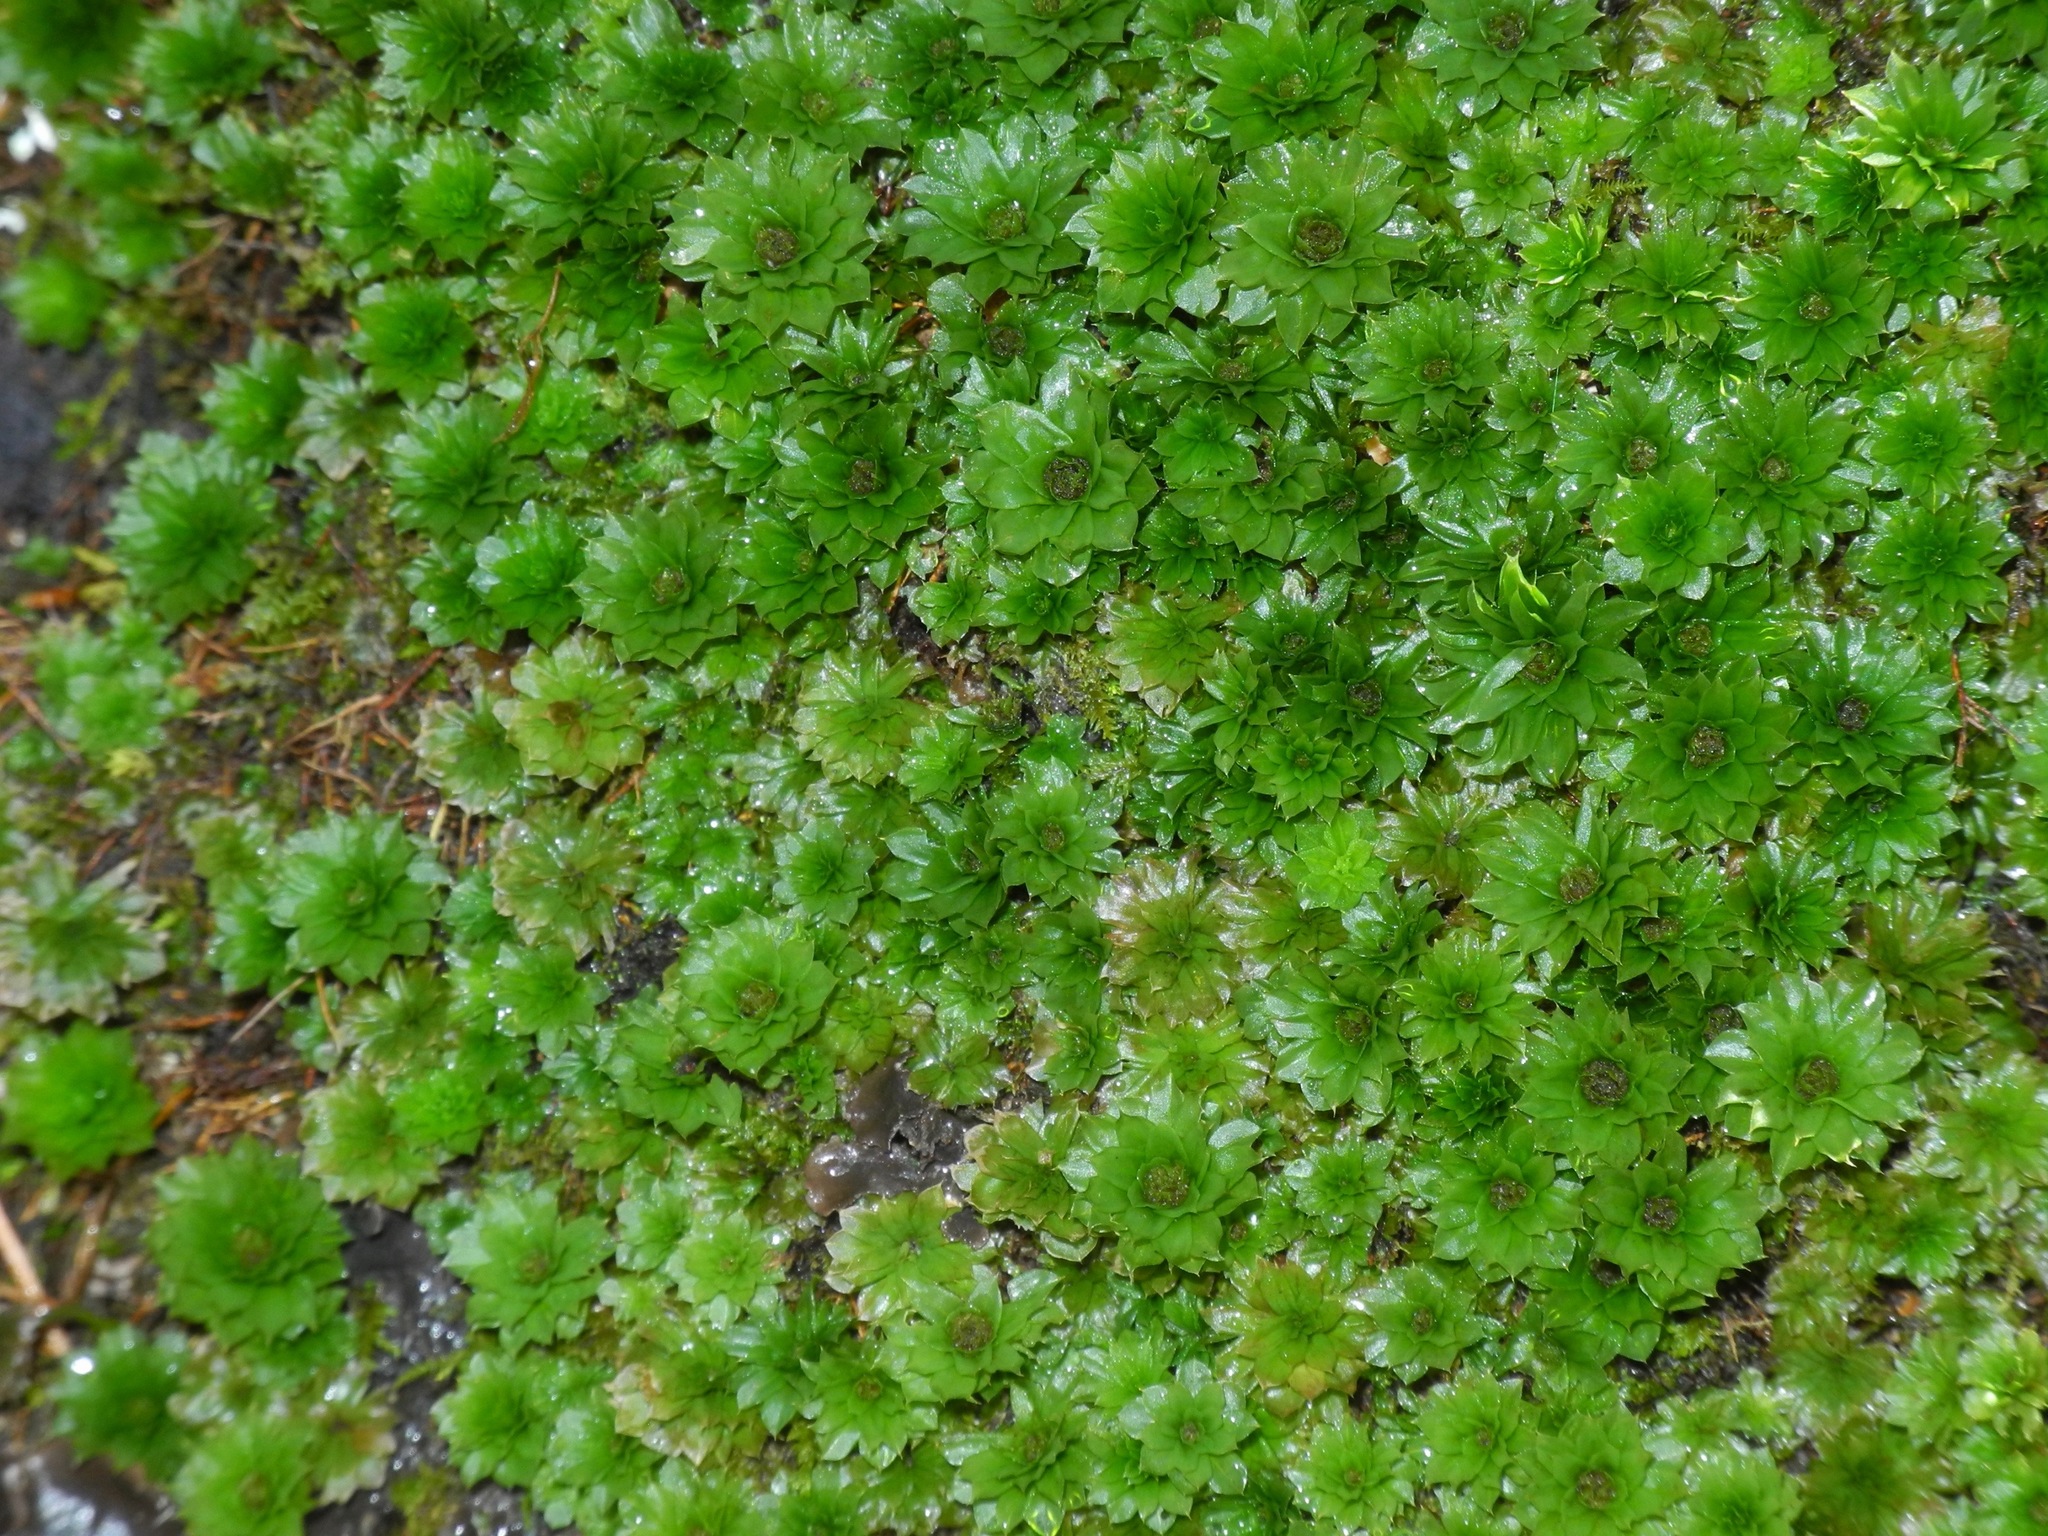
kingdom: Plantae
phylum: Bryophyta
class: Bryopsida
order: Bryales
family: Bryaceae
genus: Rhodobryum
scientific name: Rhodobryum ontariense
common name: Ontario rhodobryum moss
